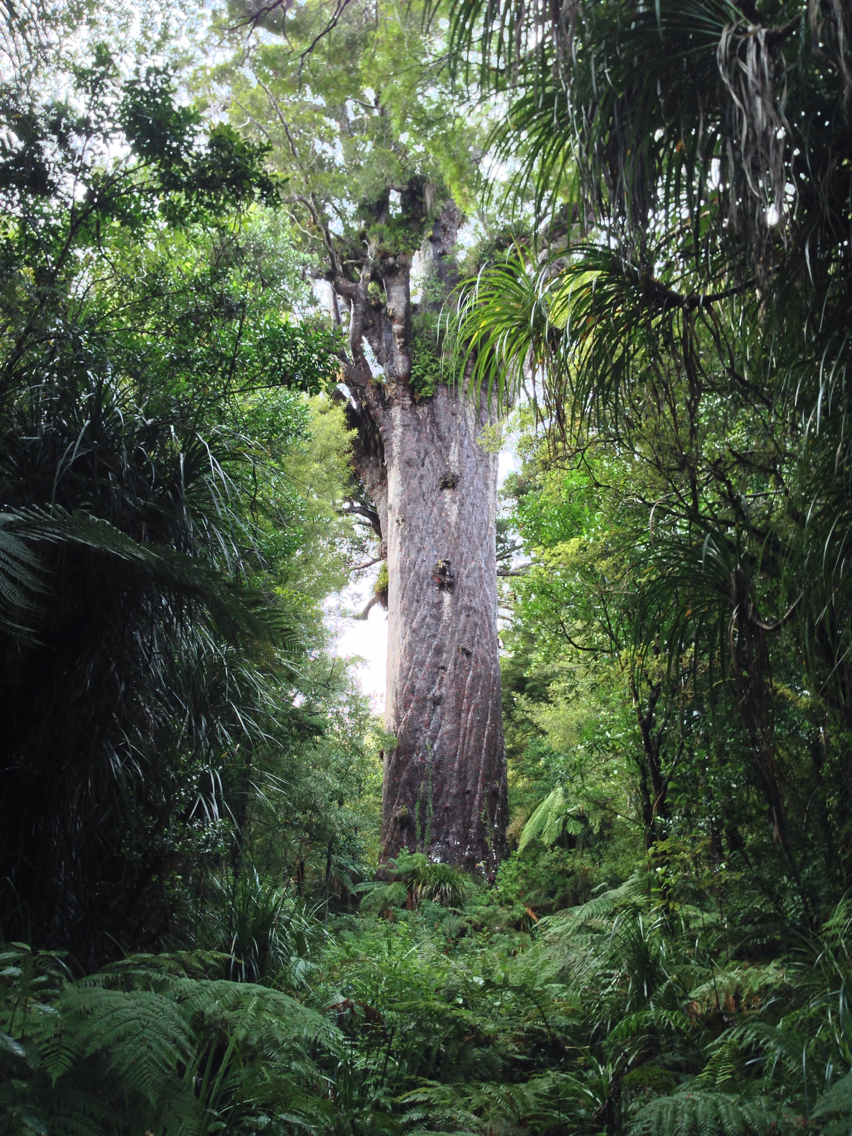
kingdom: Plantae
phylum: Tracheophyta
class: Pinopsida
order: Pinales
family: Araucariaceae
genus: Agathis
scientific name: Agathis australis
